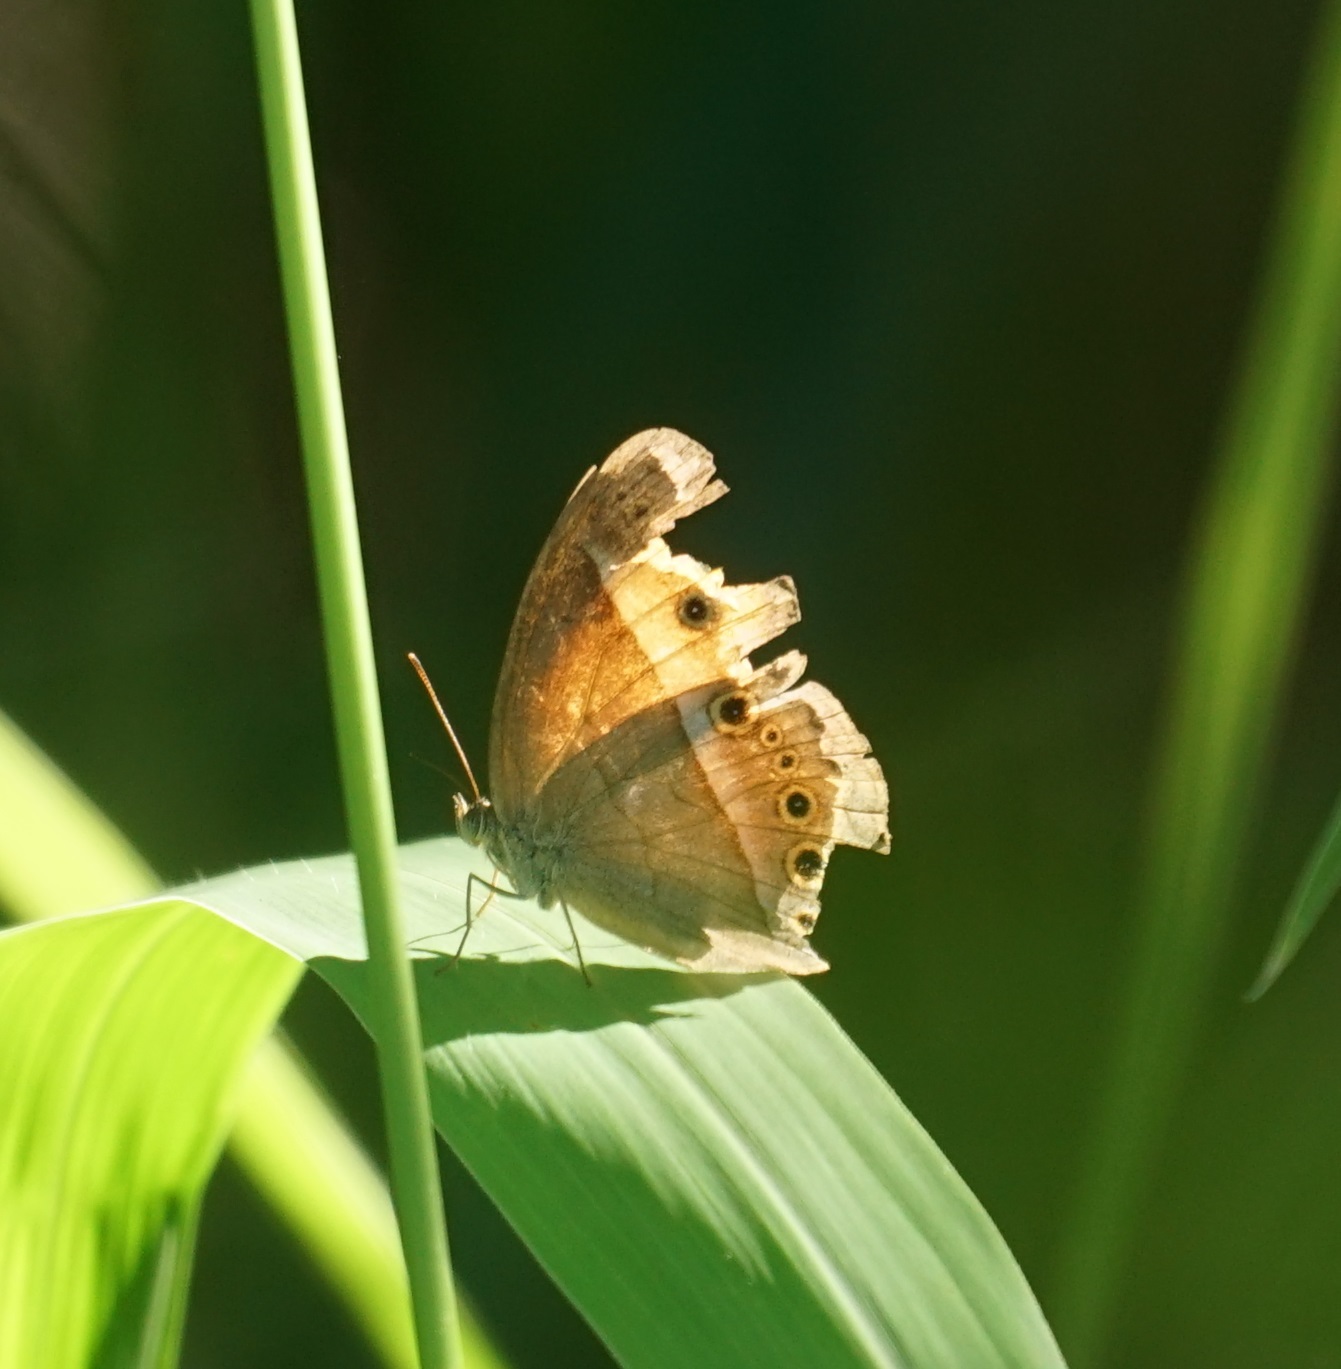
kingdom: Animalia
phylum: Arthropoda
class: Insecta
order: Lepidoptera
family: Nymphalidae
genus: Mycalesis
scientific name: Mycalesis terminus
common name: Orange bushbrown
